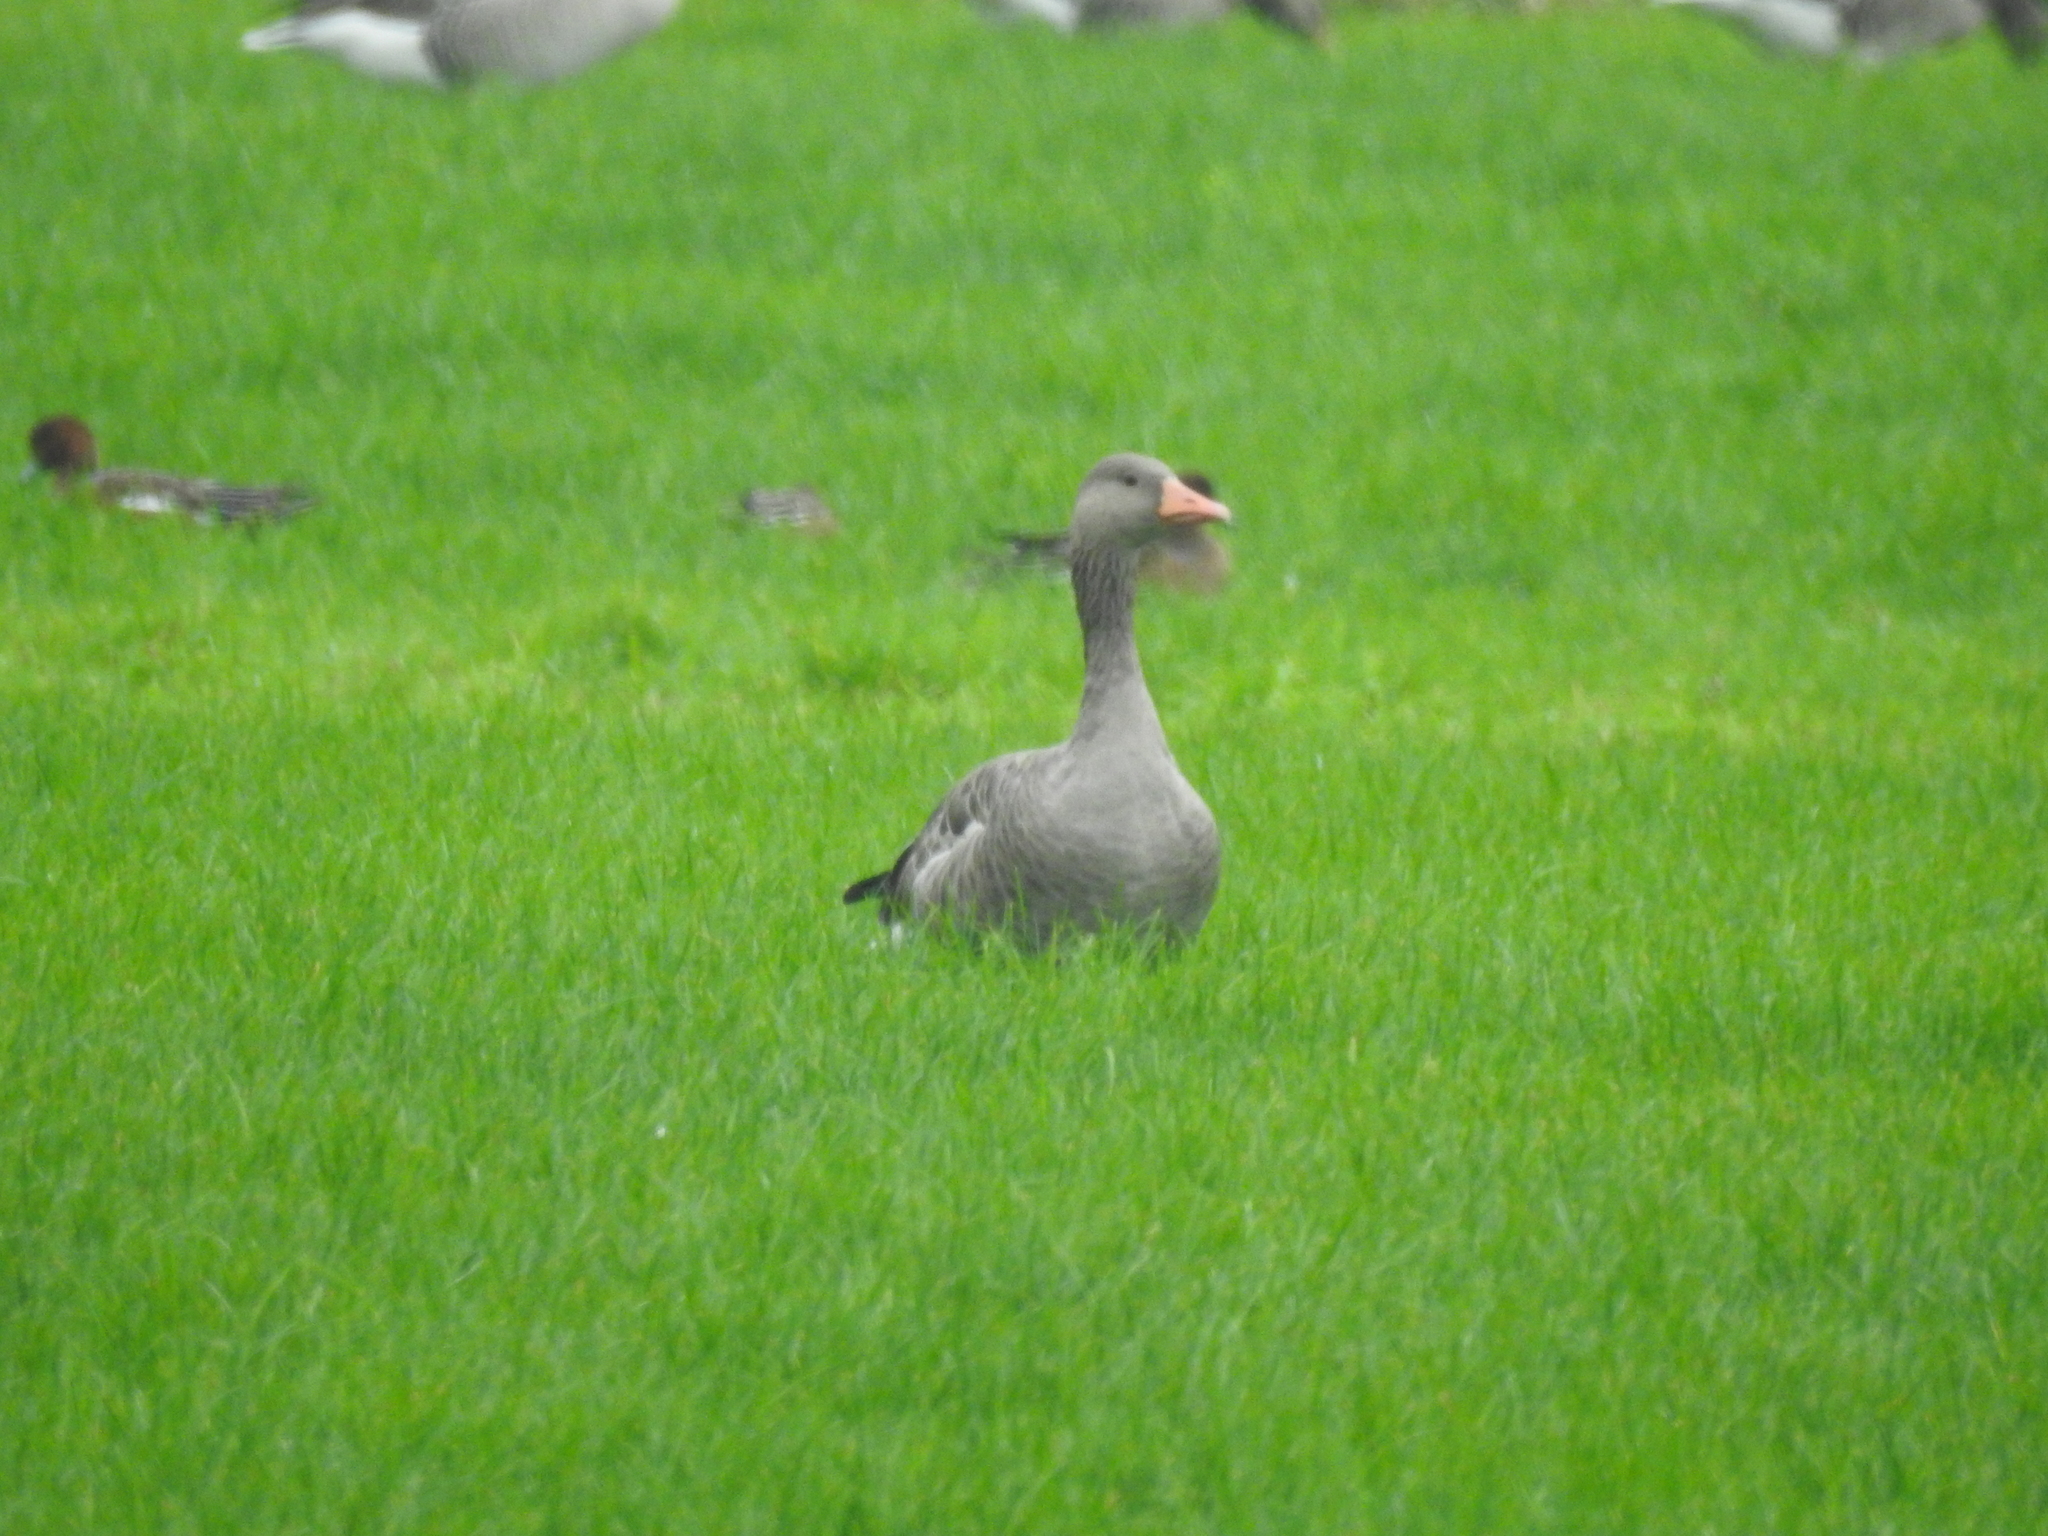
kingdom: Animalia
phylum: Chordata
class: Aves
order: Anseriformes
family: Anatidae
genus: Anser
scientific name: Anser anser
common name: Greylag goose
